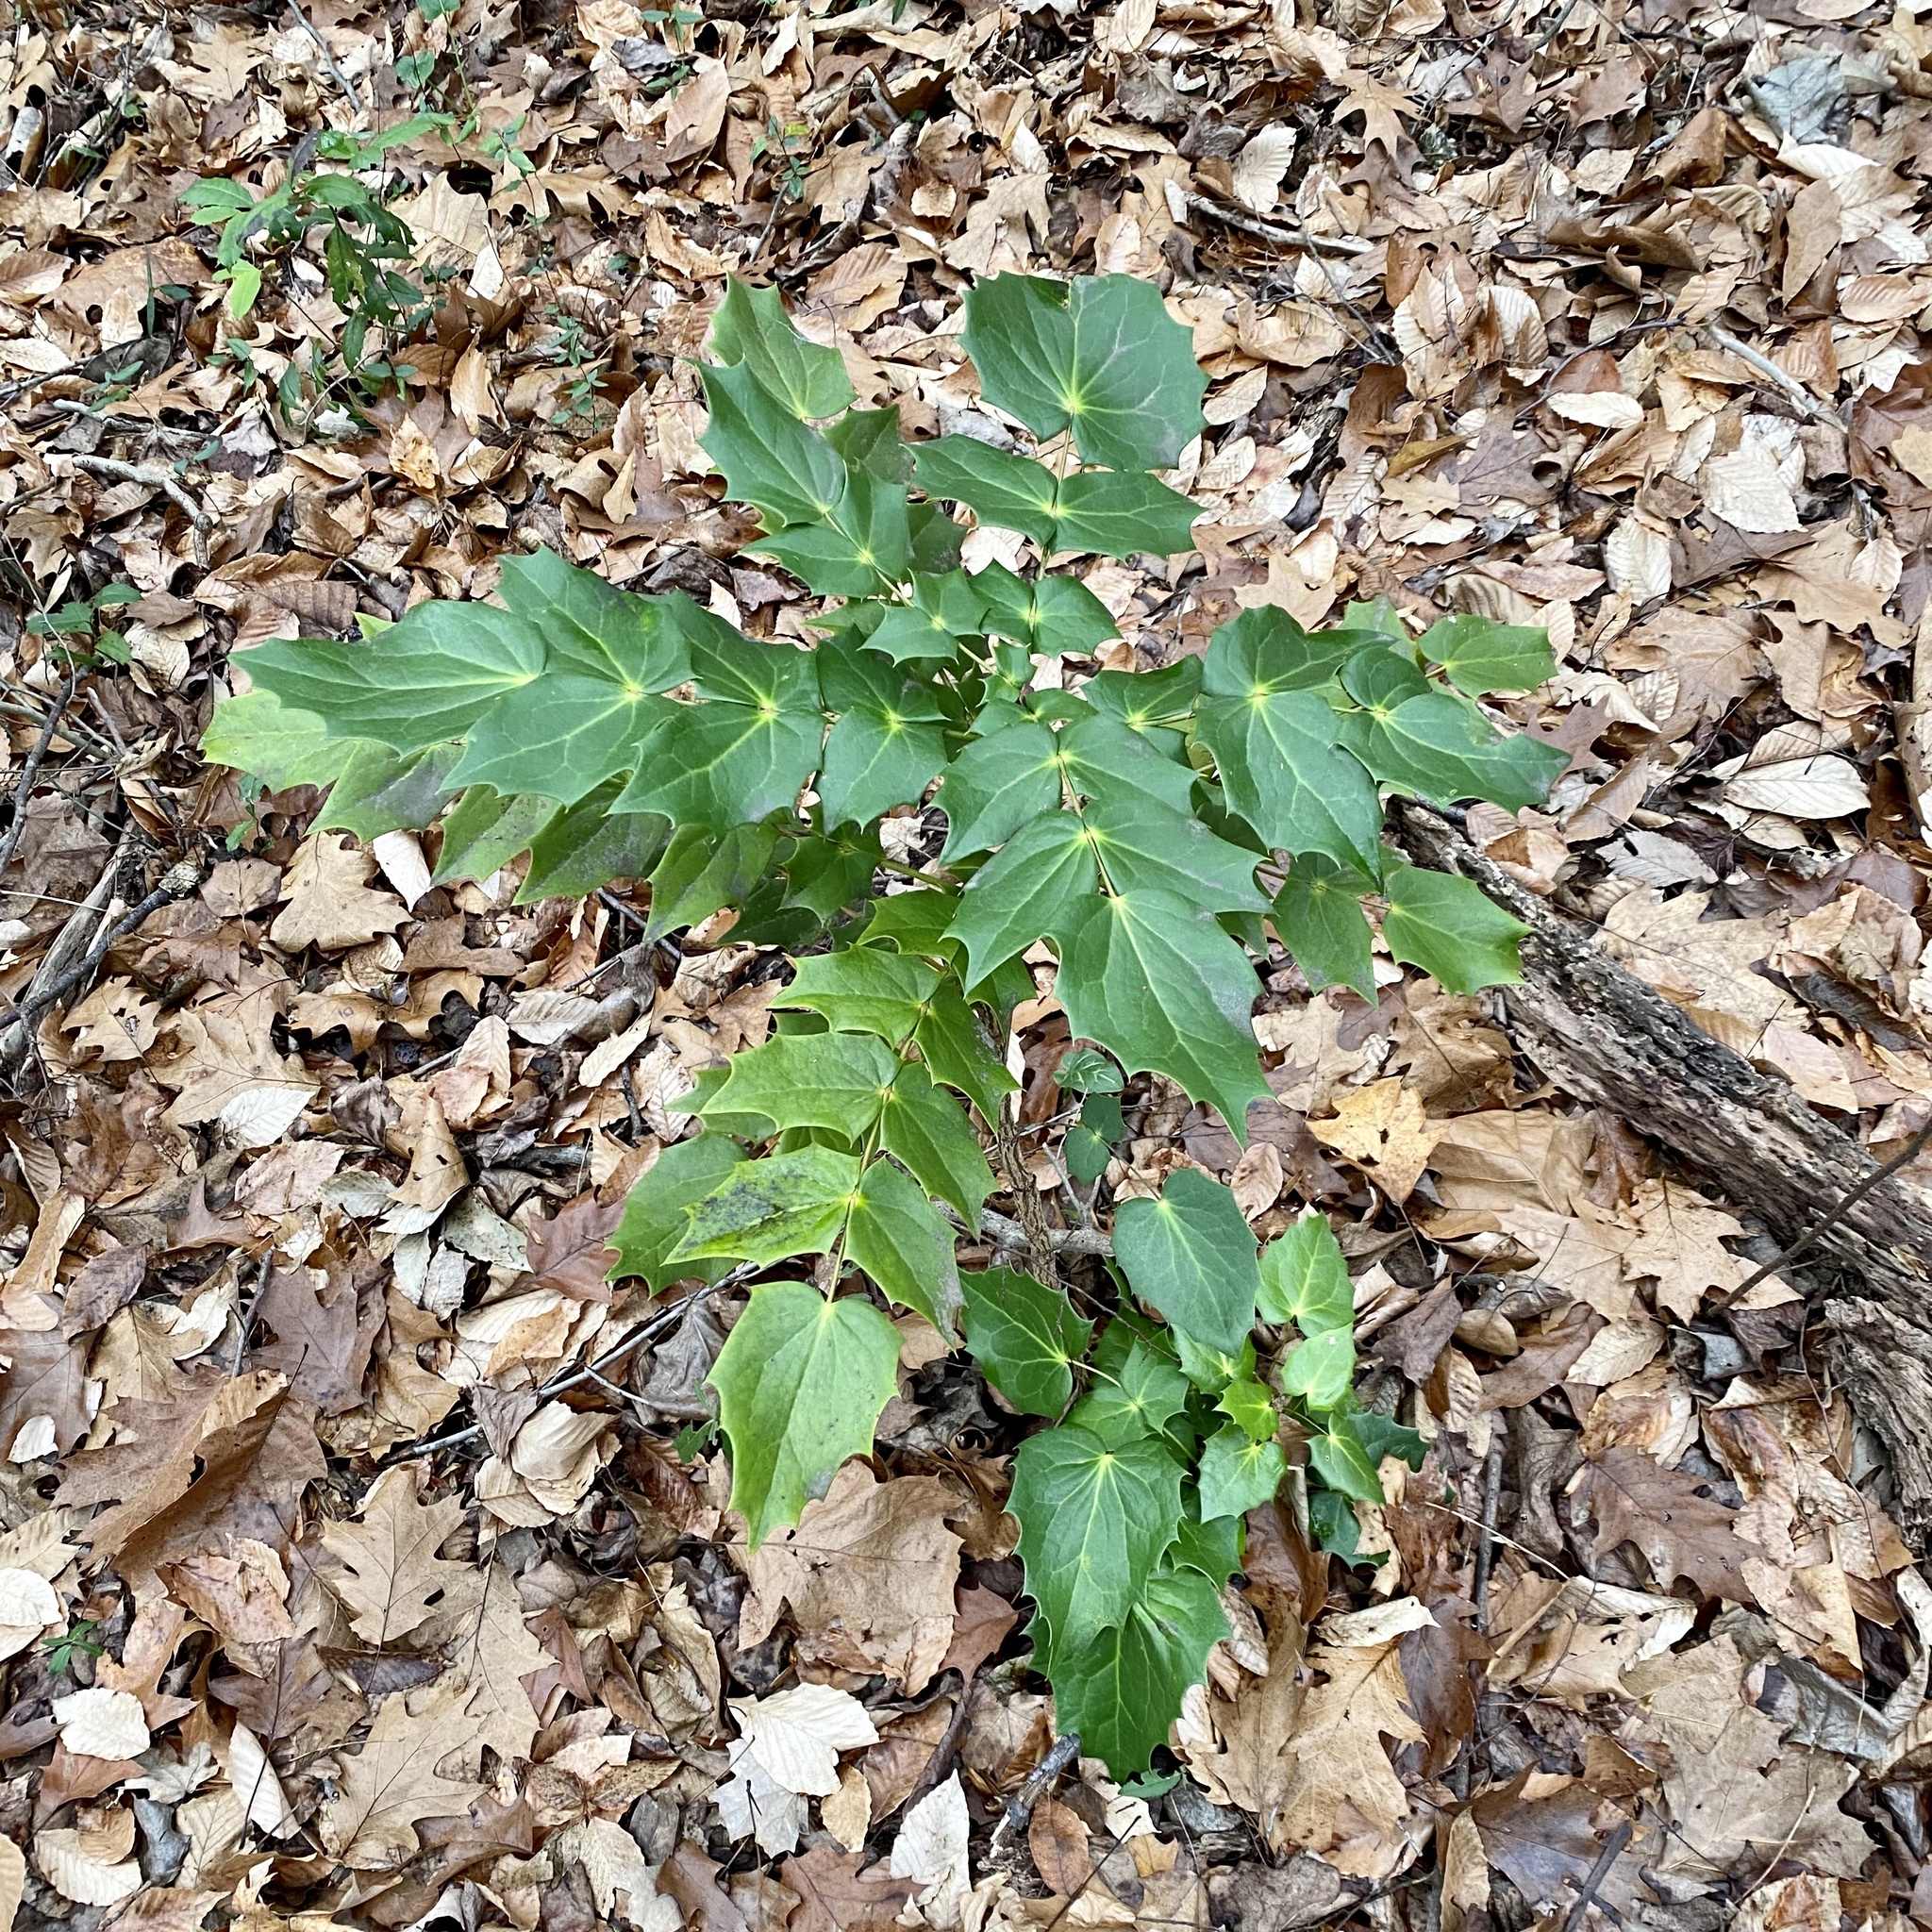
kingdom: Plantae
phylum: Tracheophyta
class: Magnoliopsida
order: Ranunculales
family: Berberidaceae
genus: Mahonia
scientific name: Mahonia bealei
